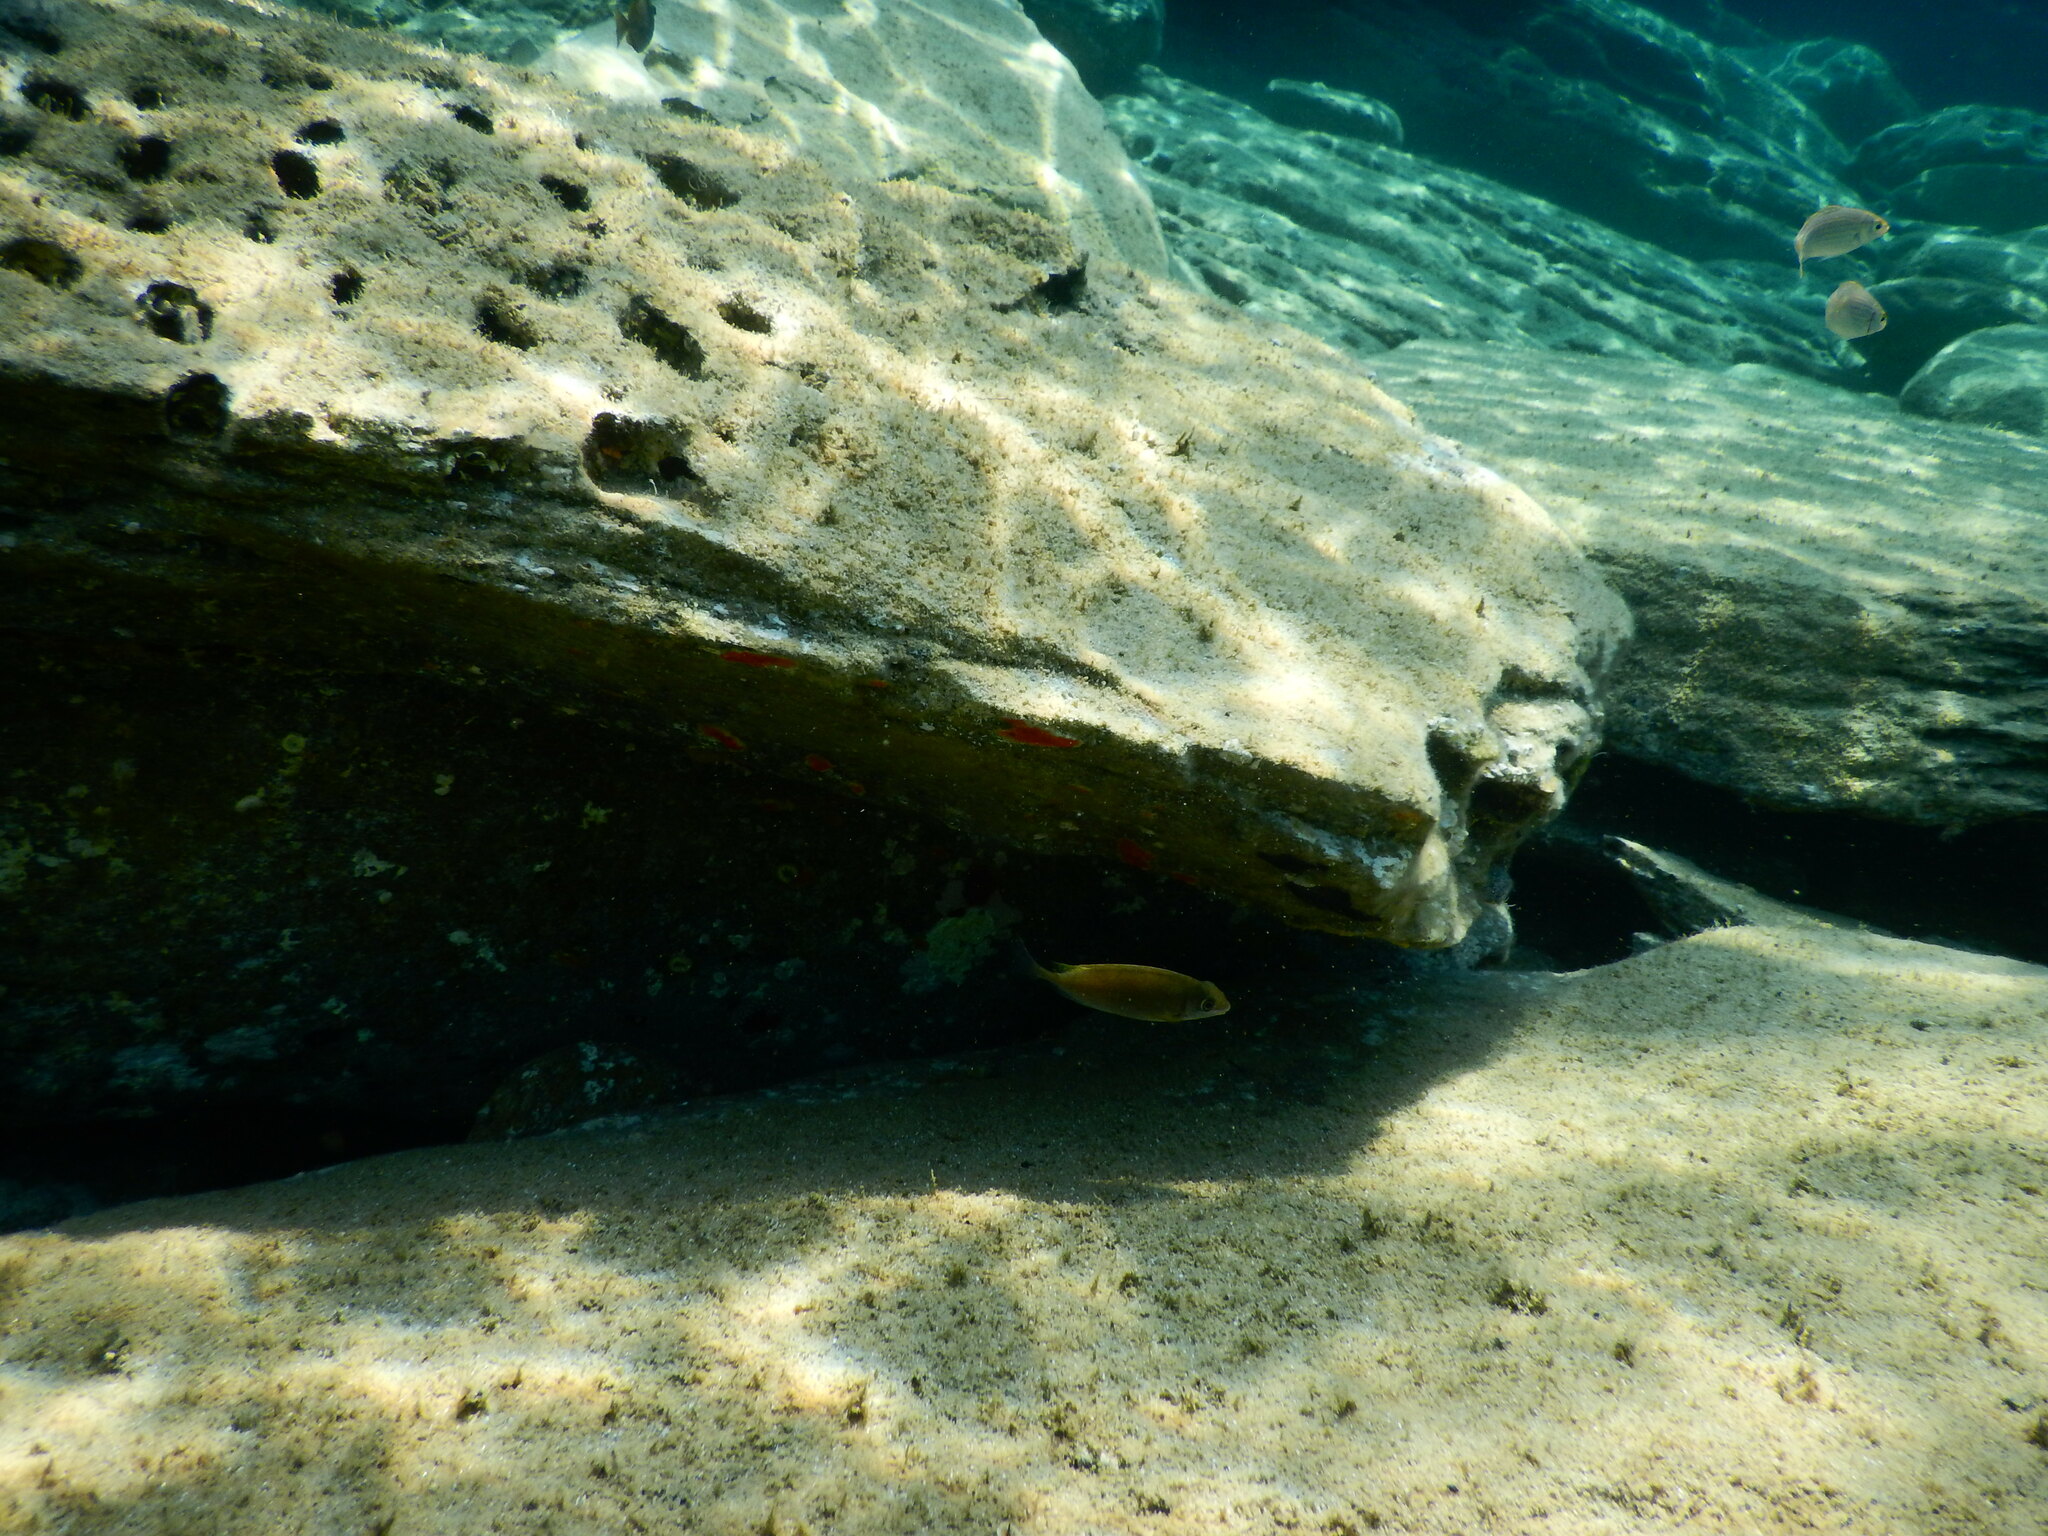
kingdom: Animalia
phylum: Chordata
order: Perciformes
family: Siganidae
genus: Siganus
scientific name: Siganus
